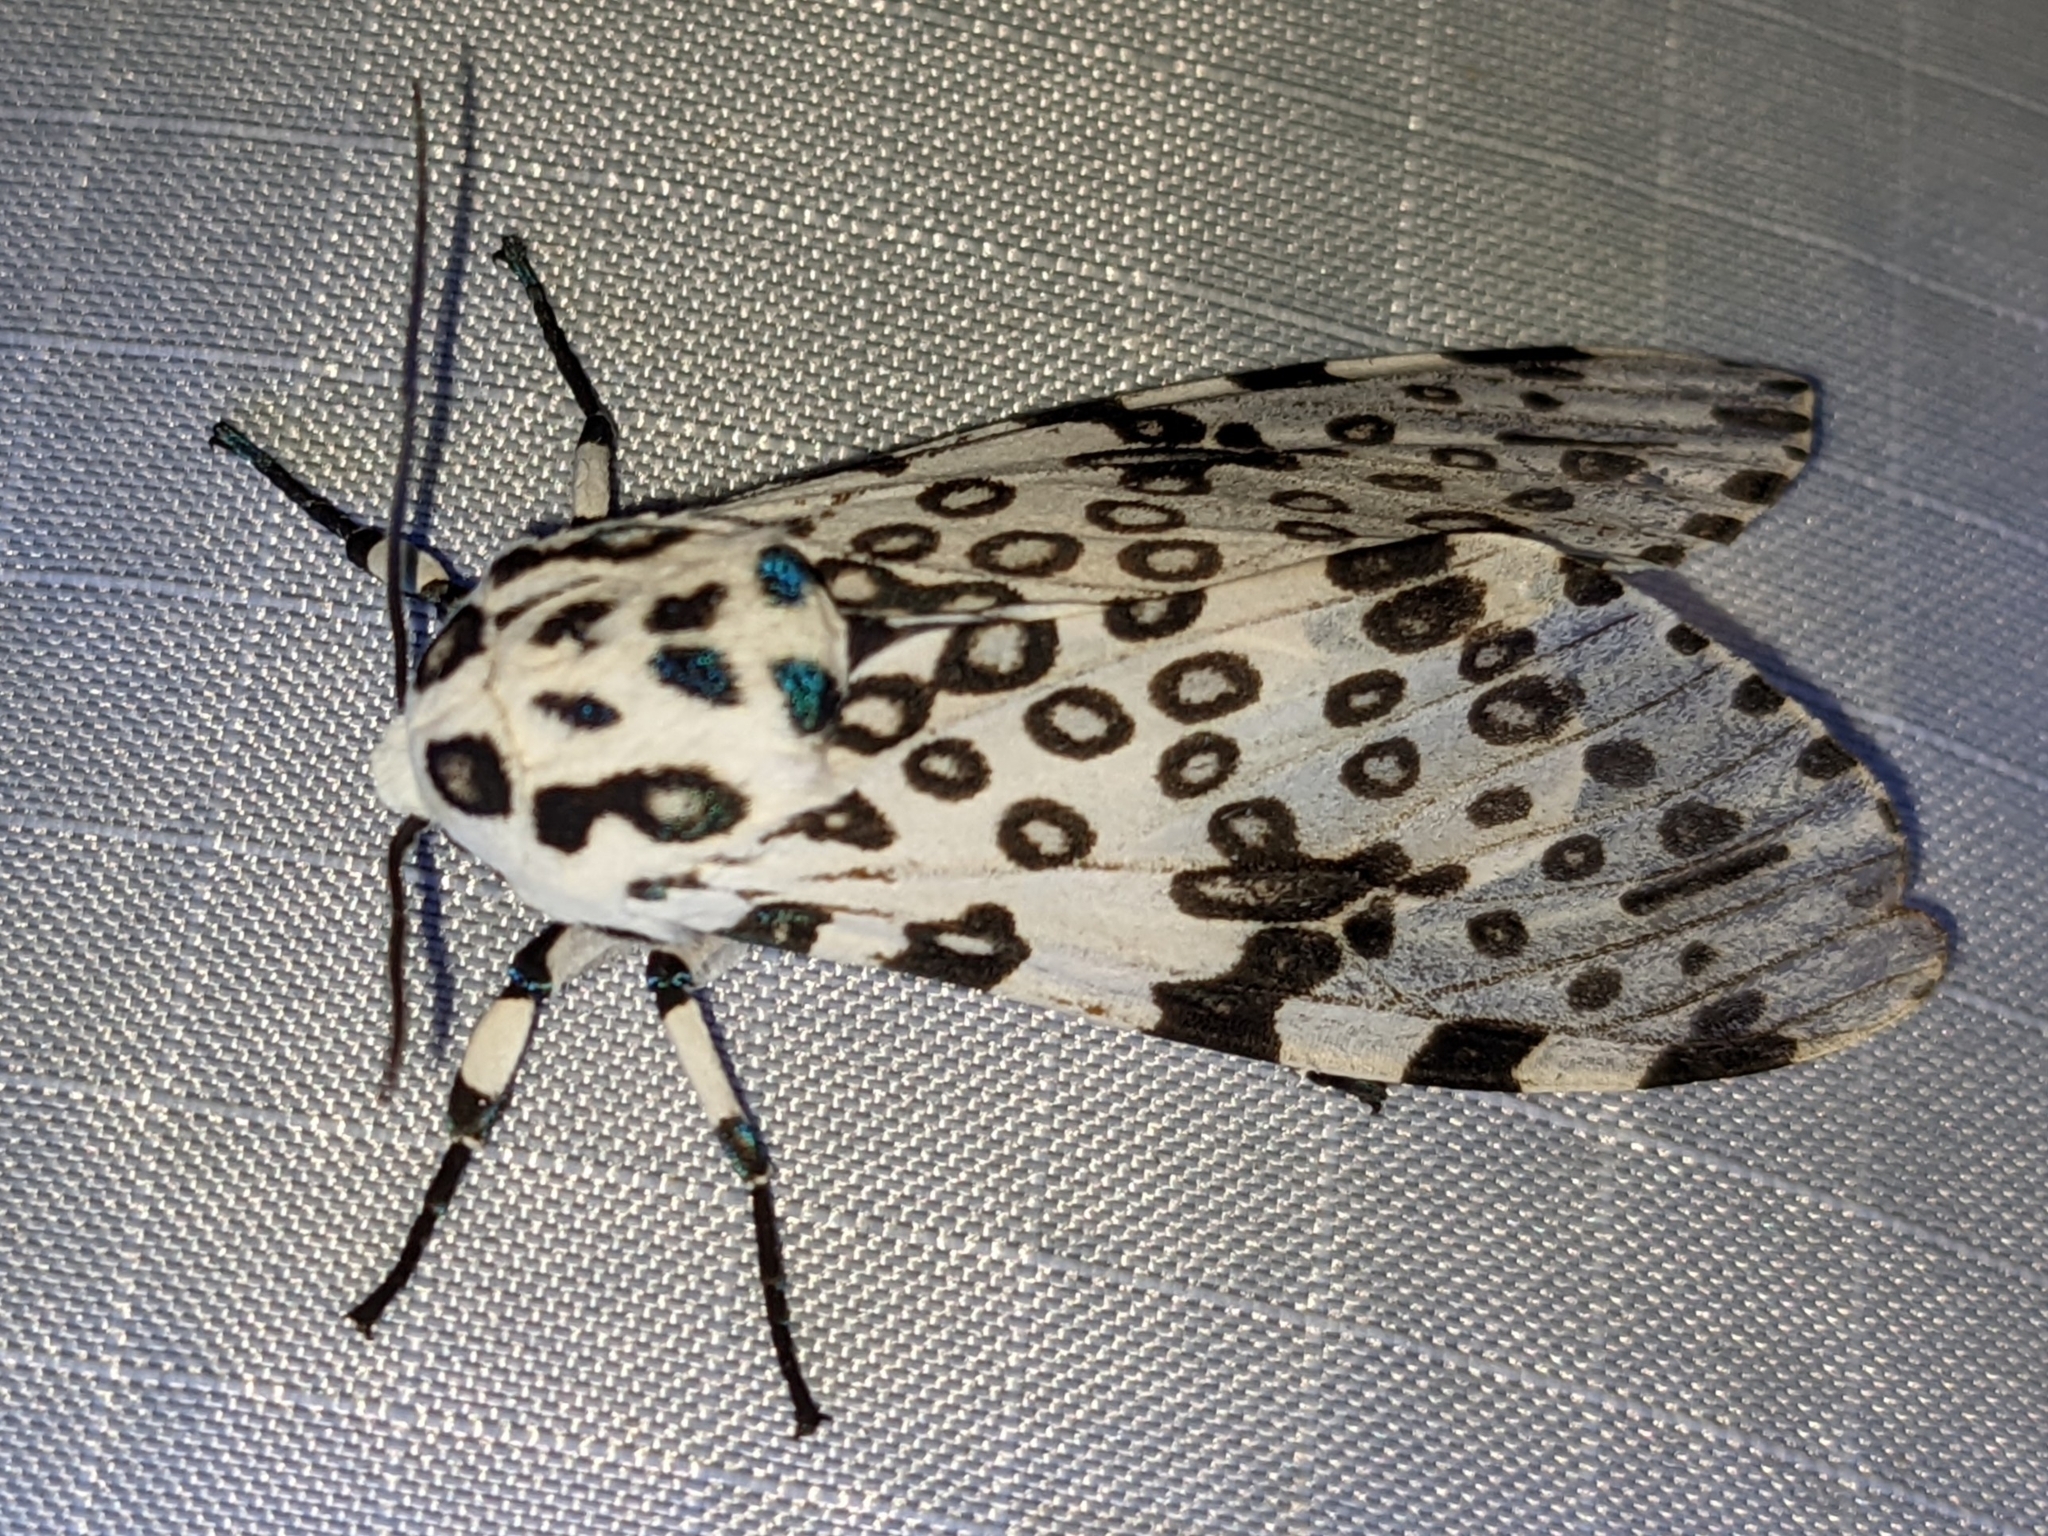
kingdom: Animalia
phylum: Arthropoda
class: Insecta
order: Lepidoptera
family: Erebidae
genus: Hypercompe
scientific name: Hypercompe scribonia
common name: Giant leopard moth
